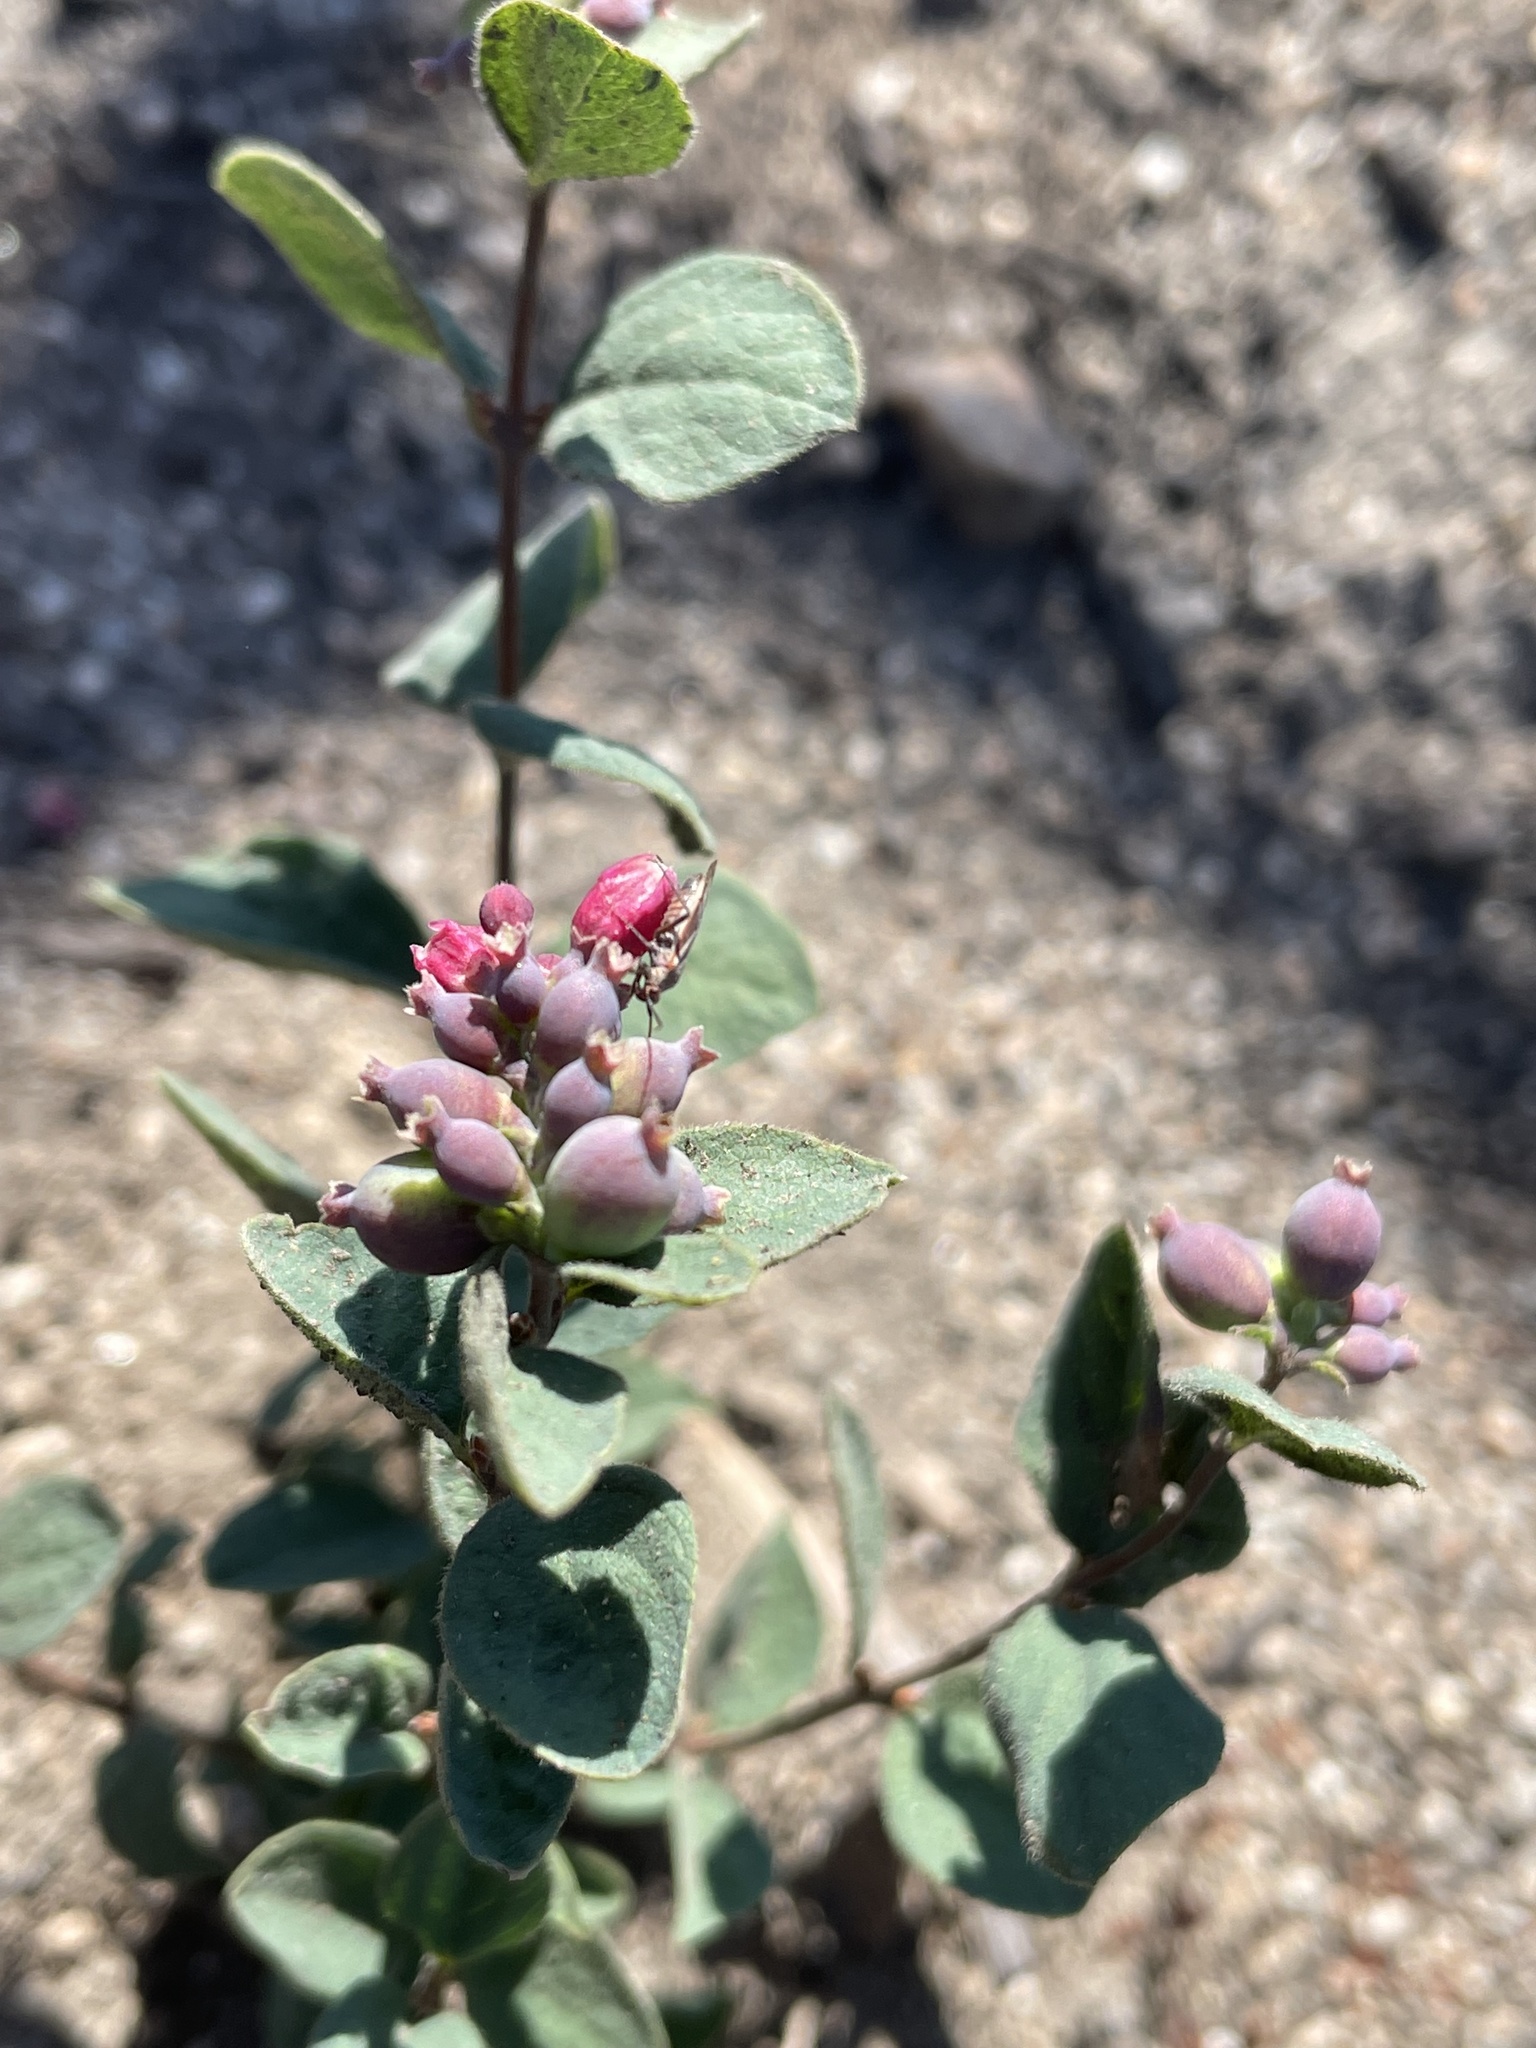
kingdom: Plantae
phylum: Tracheophyta
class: Magnoliopsida
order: Dipsacales
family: Caprifoliaceae
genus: Symphoricarpos
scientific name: Symphoricarpos albus
